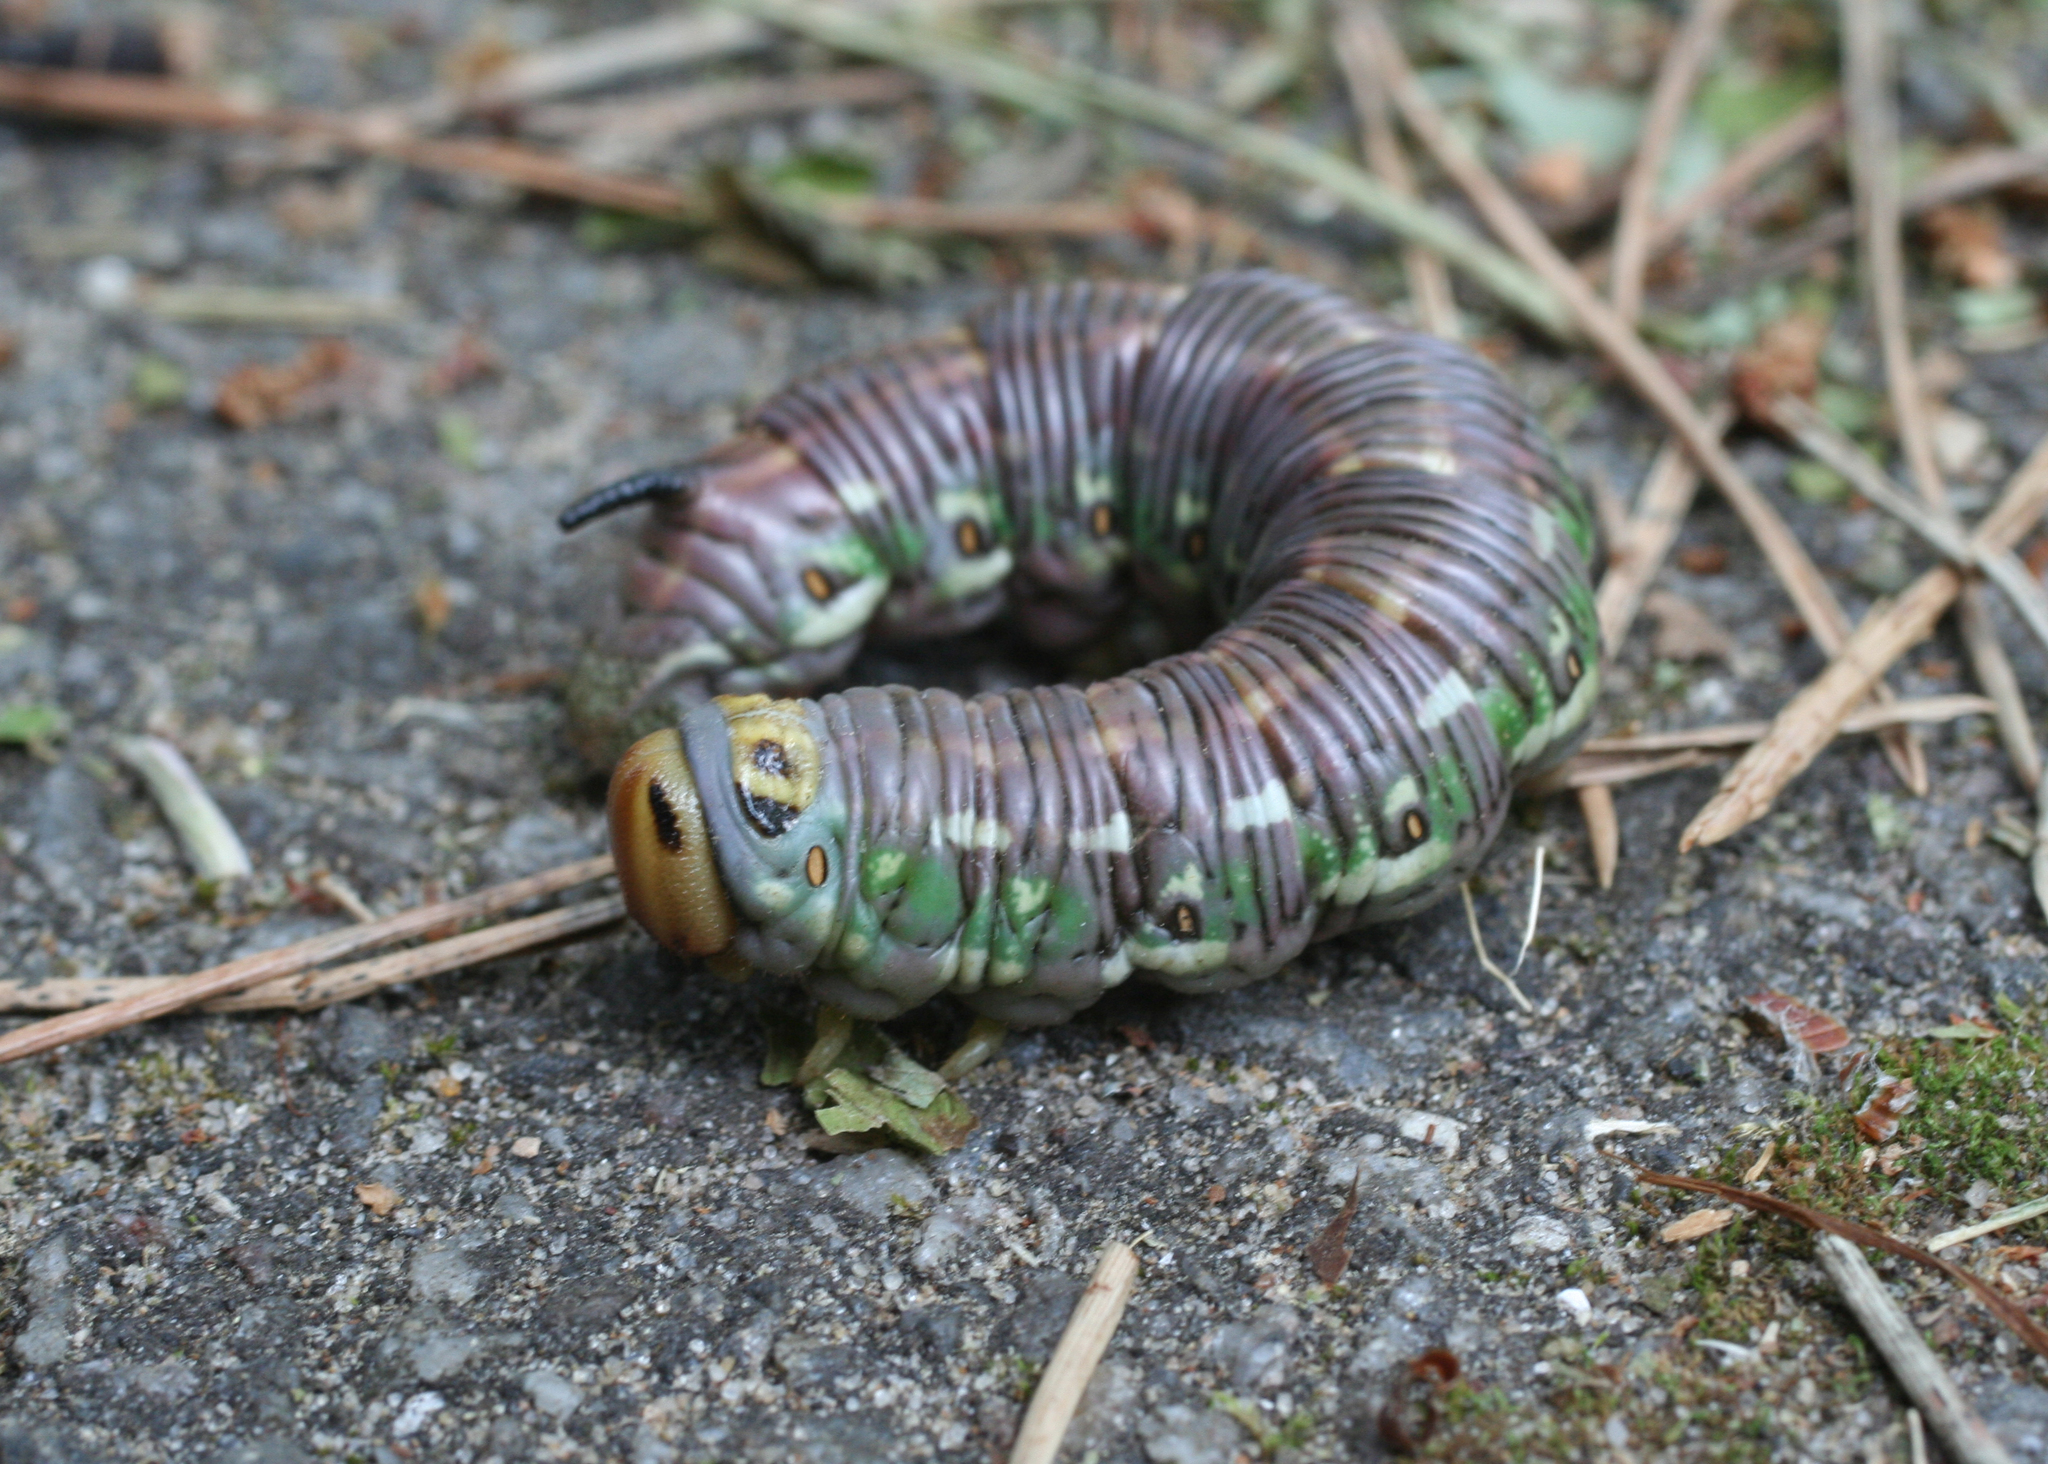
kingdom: Animalia
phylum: Arthropoda
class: Insecta
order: Lepidoptera
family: Sphingidae
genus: Sphinx
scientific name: Sphinx pinastri
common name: Pine hawk-moth
